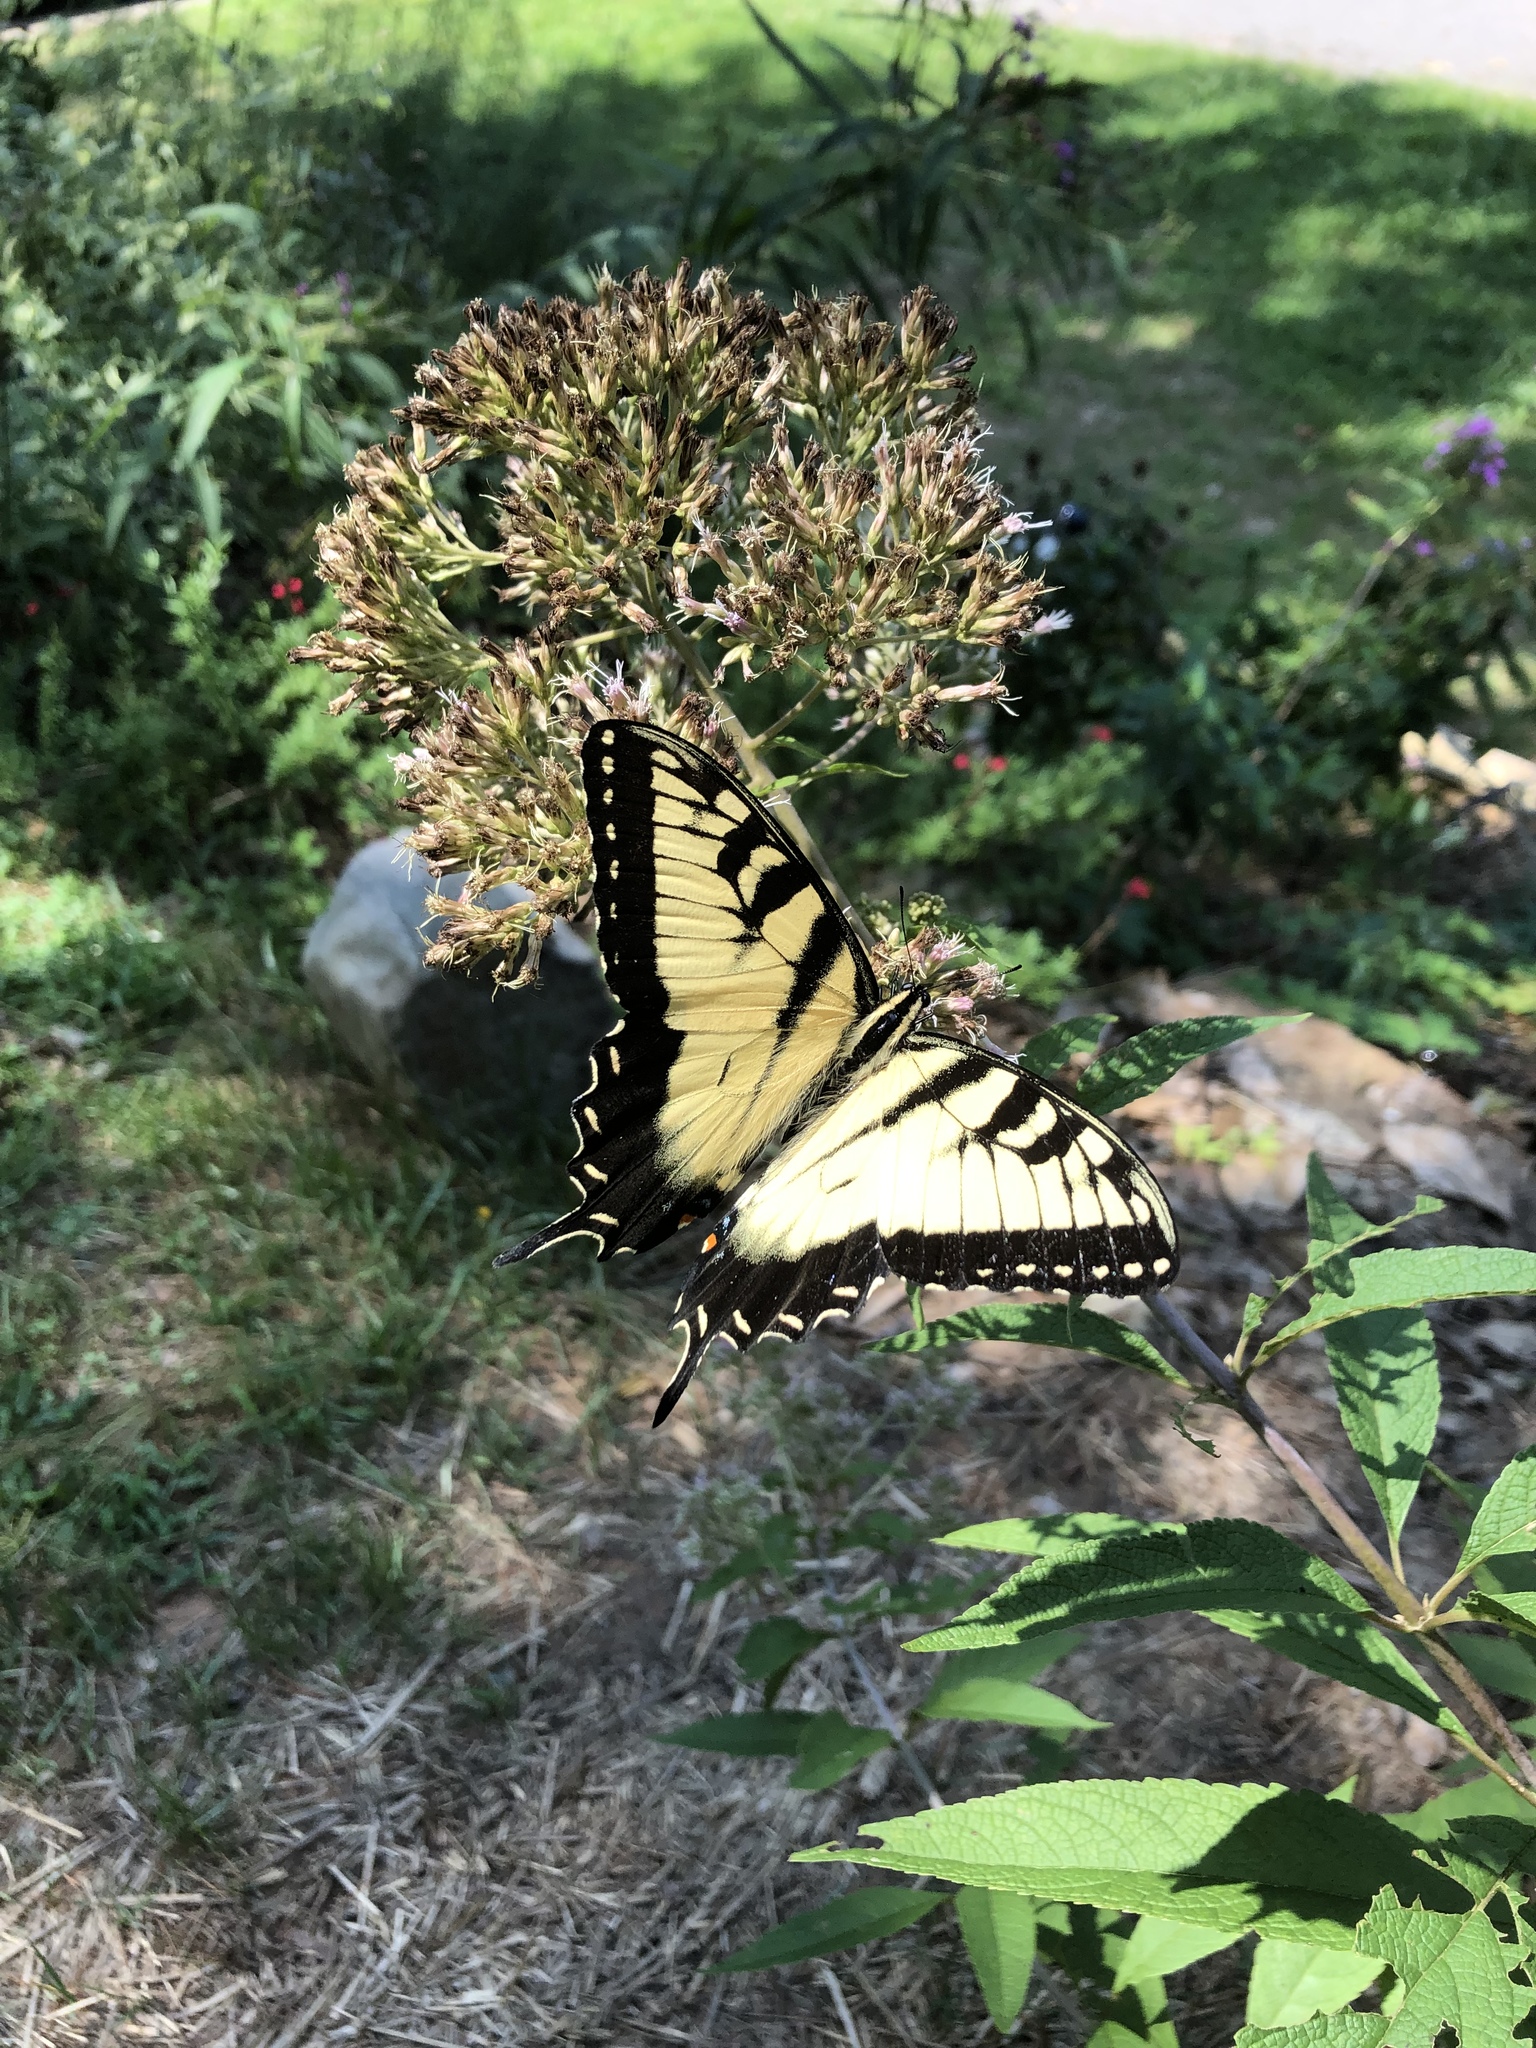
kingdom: Animalia
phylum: Arthropoda
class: Insecta
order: Lepidoptera
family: Papilionidae
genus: Papilio
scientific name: Papilio glaucus
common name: Tiger swallowtail
